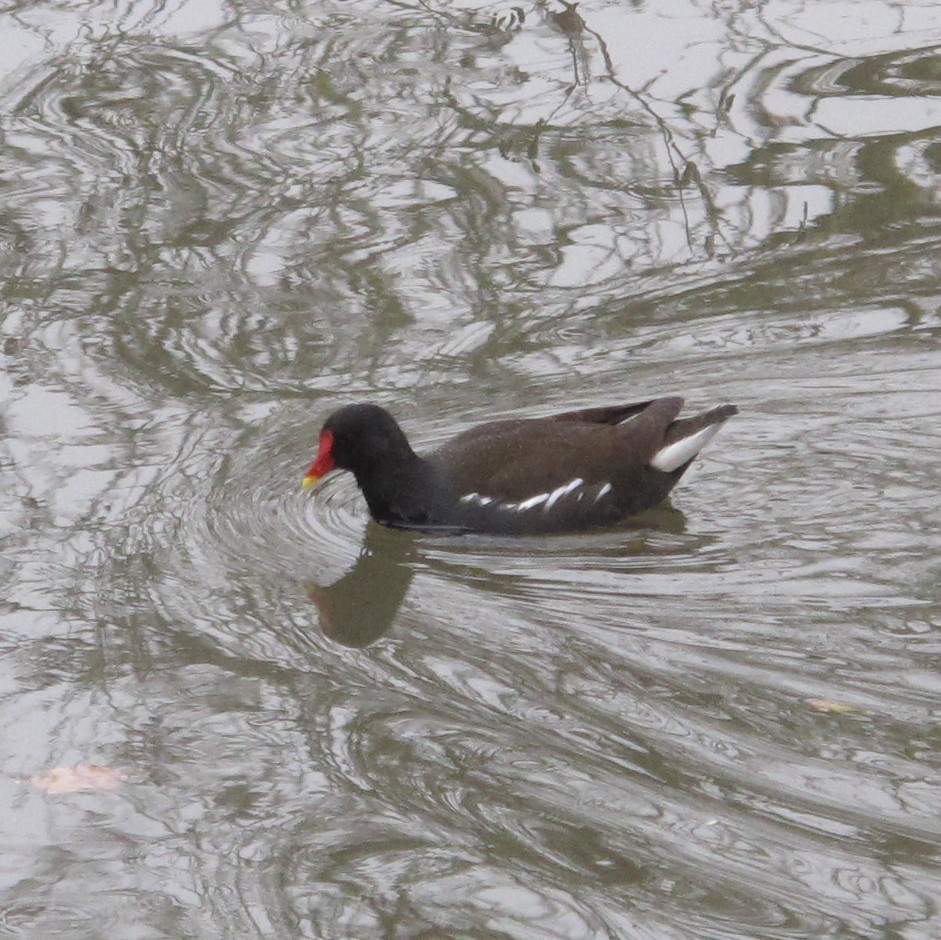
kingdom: Animalia
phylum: Chordata
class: Aves
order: Gruiformes
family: Rallidae
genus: Gallinula
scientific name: Gallinula chloropus
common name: Common moorhen
